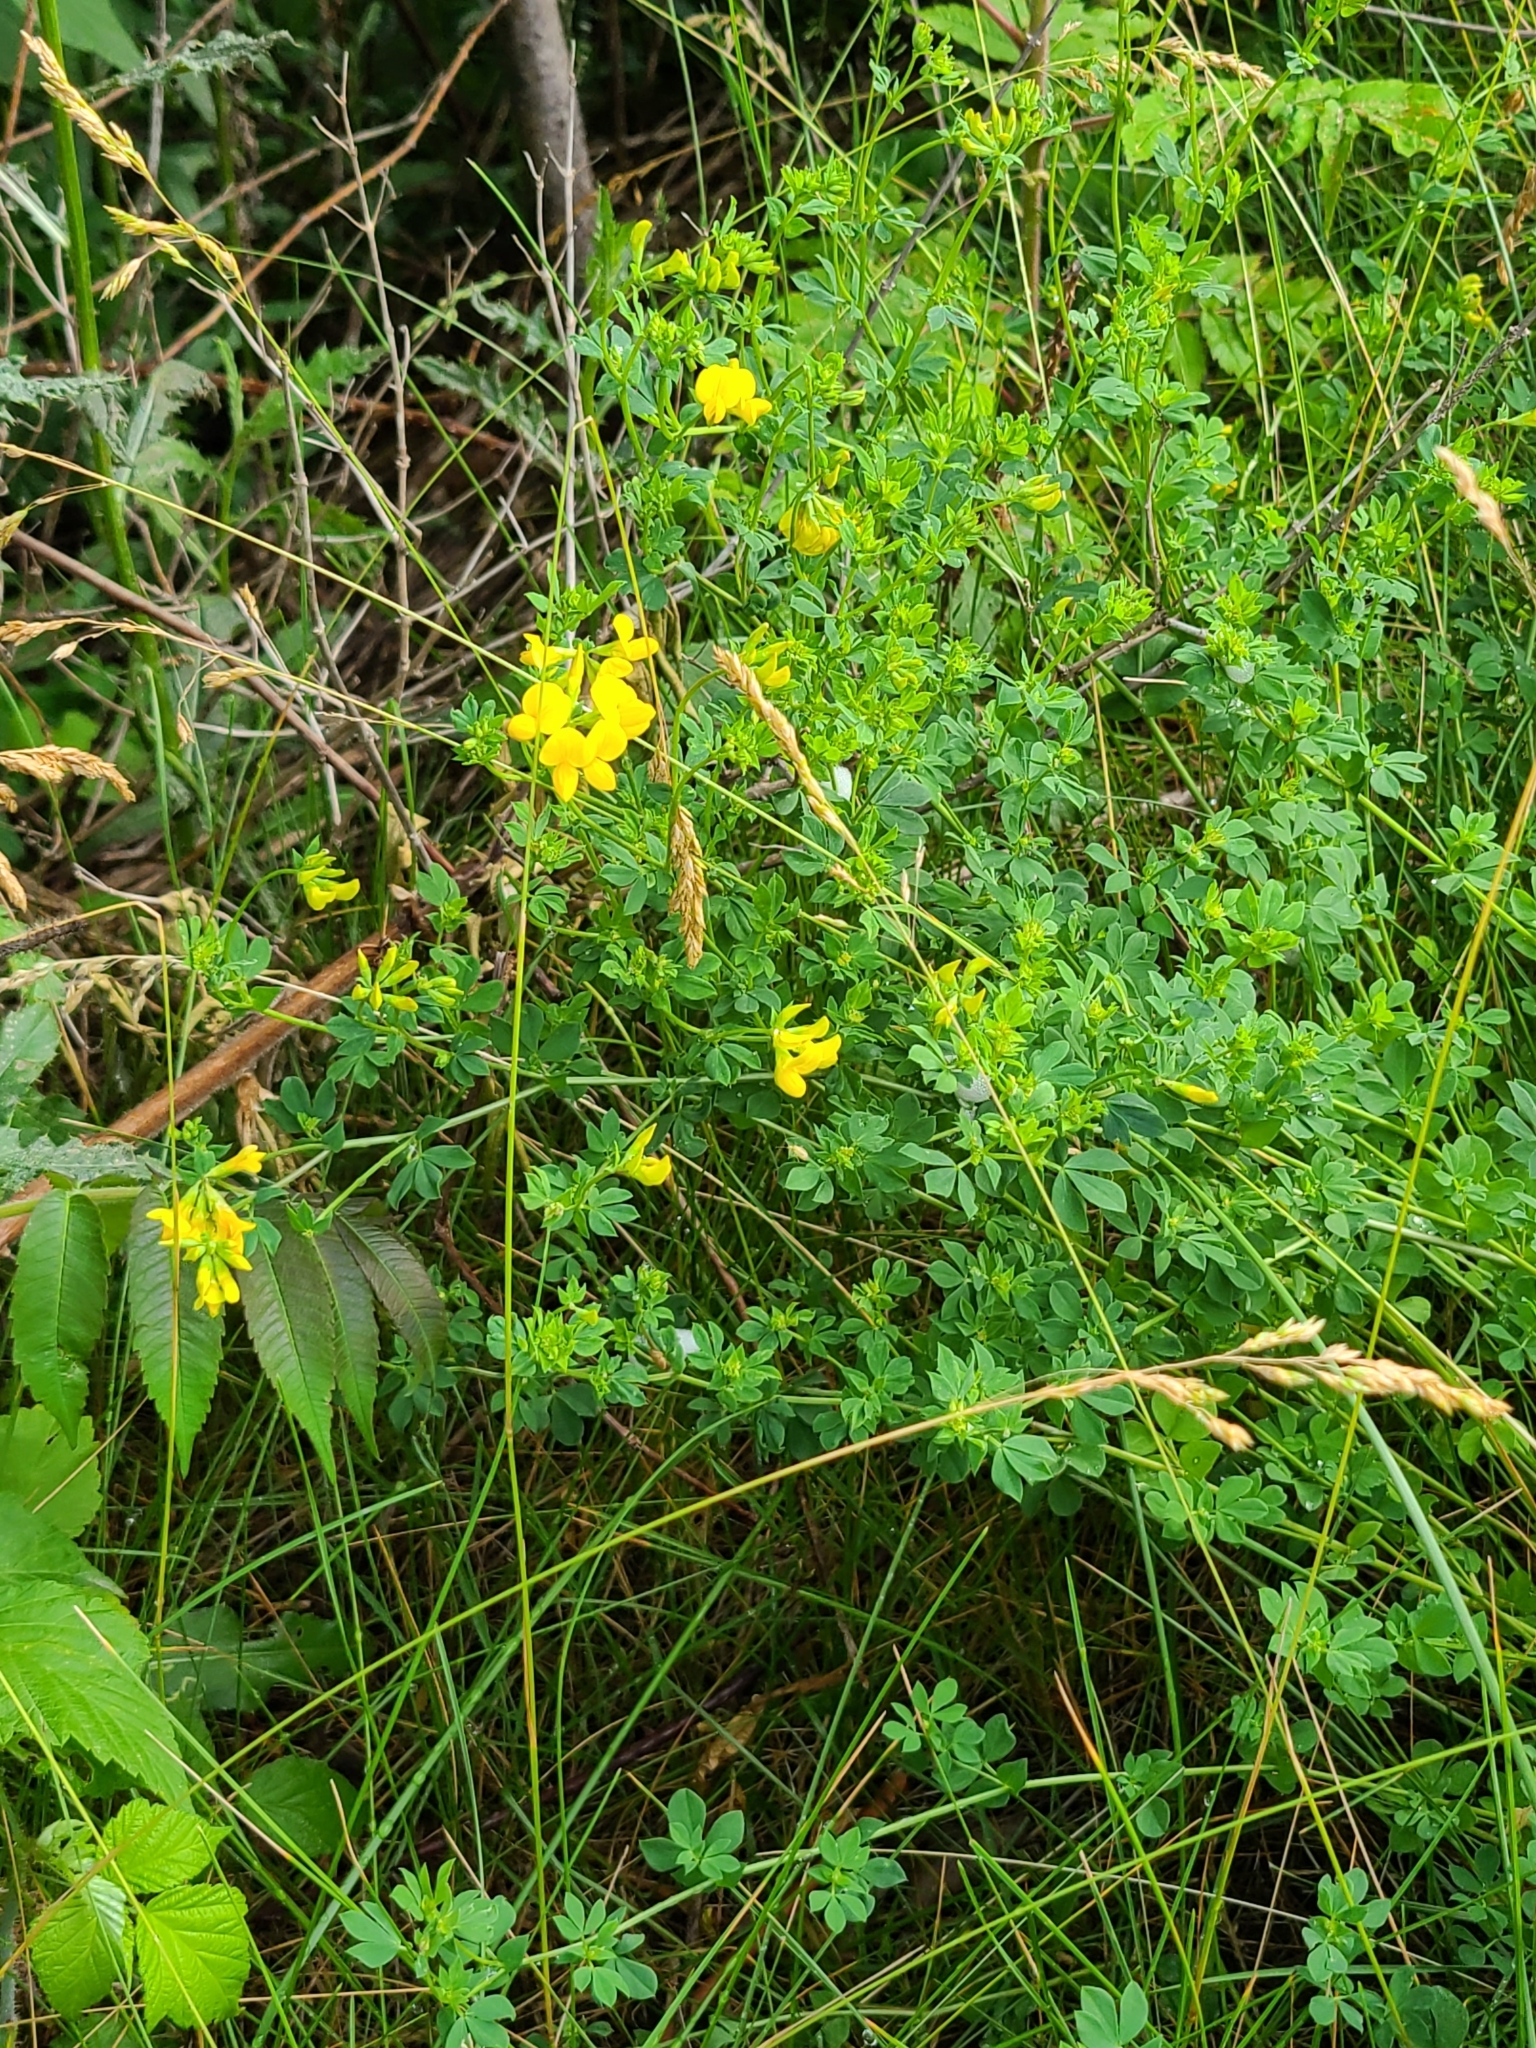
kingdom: Plantae
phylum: Tracheophyta
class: Magnoliopsida
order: Fabales
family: Fabaceae
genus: Lotus
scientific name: Lotus corniculatus
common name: Common bird's-foot-trefoil
